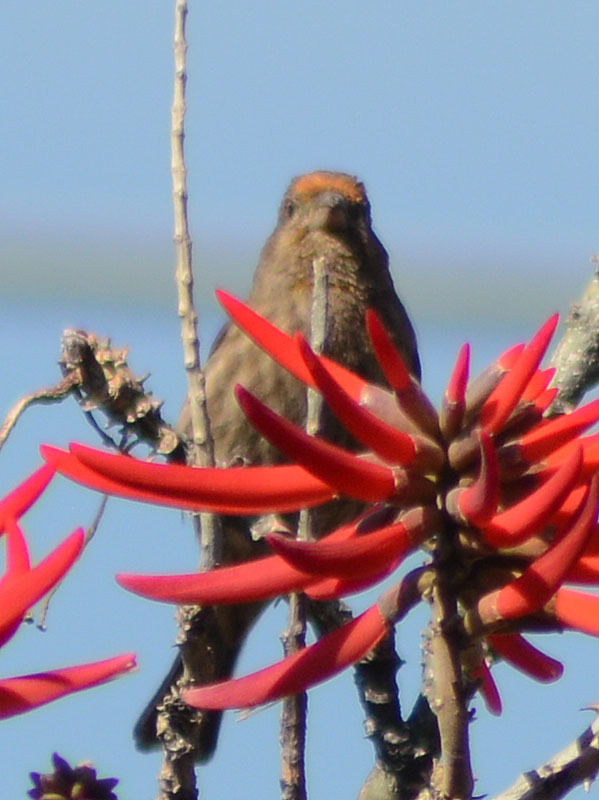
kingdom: Animalia
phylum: Chordata
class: Aves
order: Passeriformes
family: Fringillidae
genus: Haemorhous
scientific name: Haemorhous mexicanus
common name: House finch
